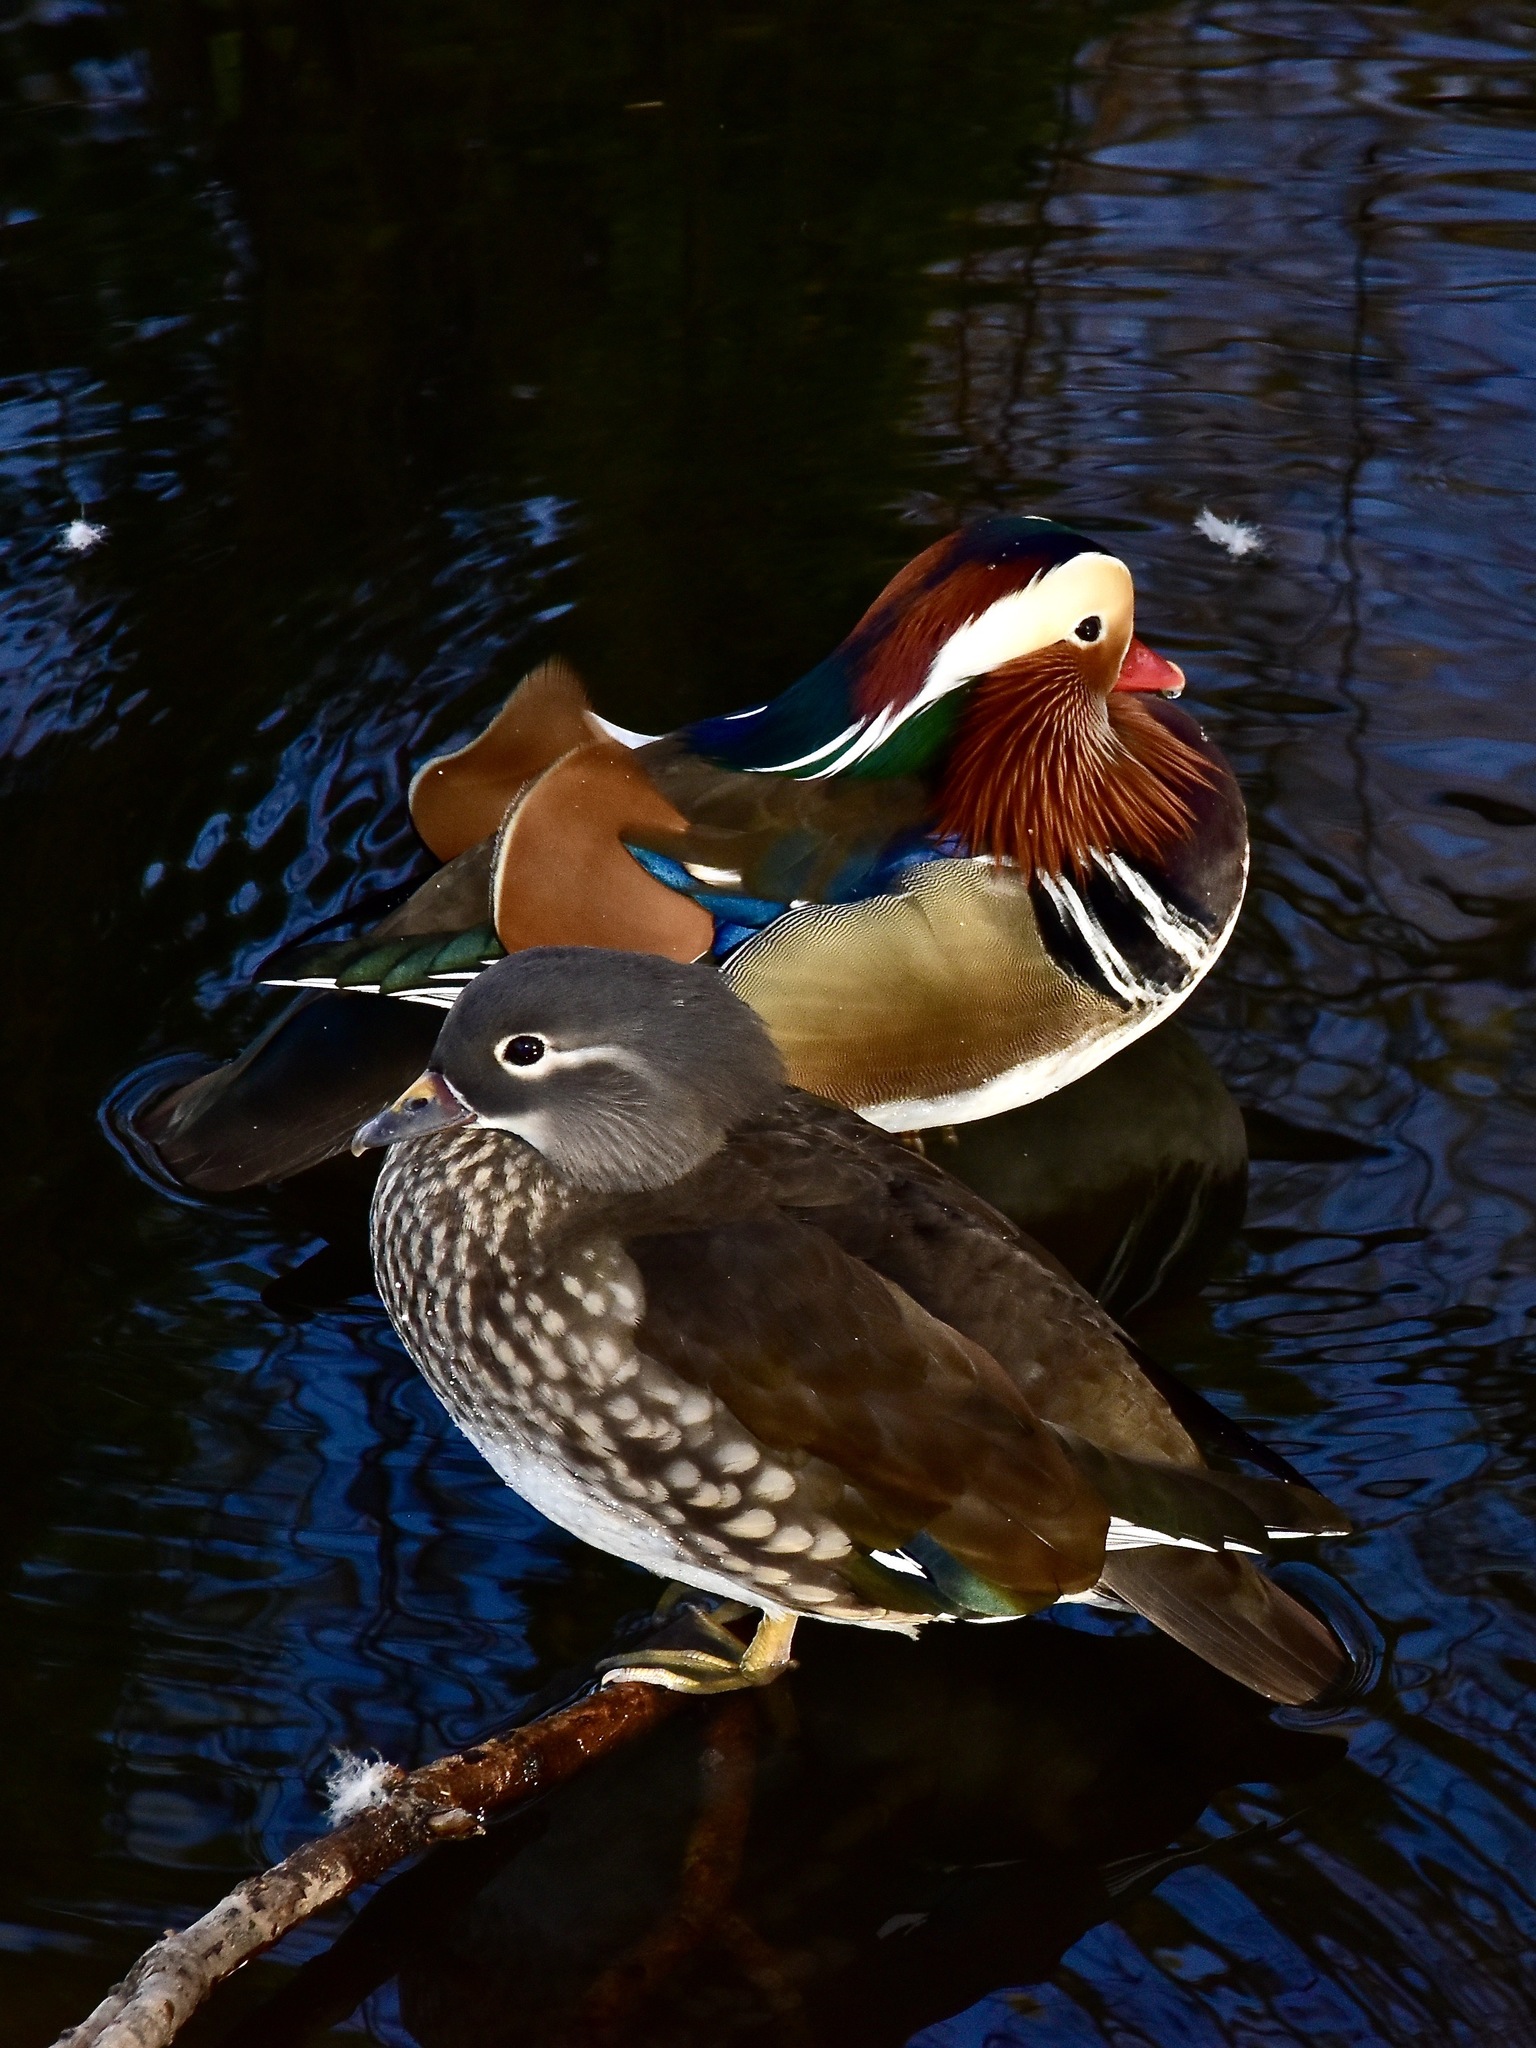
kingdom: Animalia
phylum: Chordata
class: Aves
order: Anseriformes
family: Anatidae
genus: Aix
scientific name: Aix galericulata
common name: Mandarin duck
